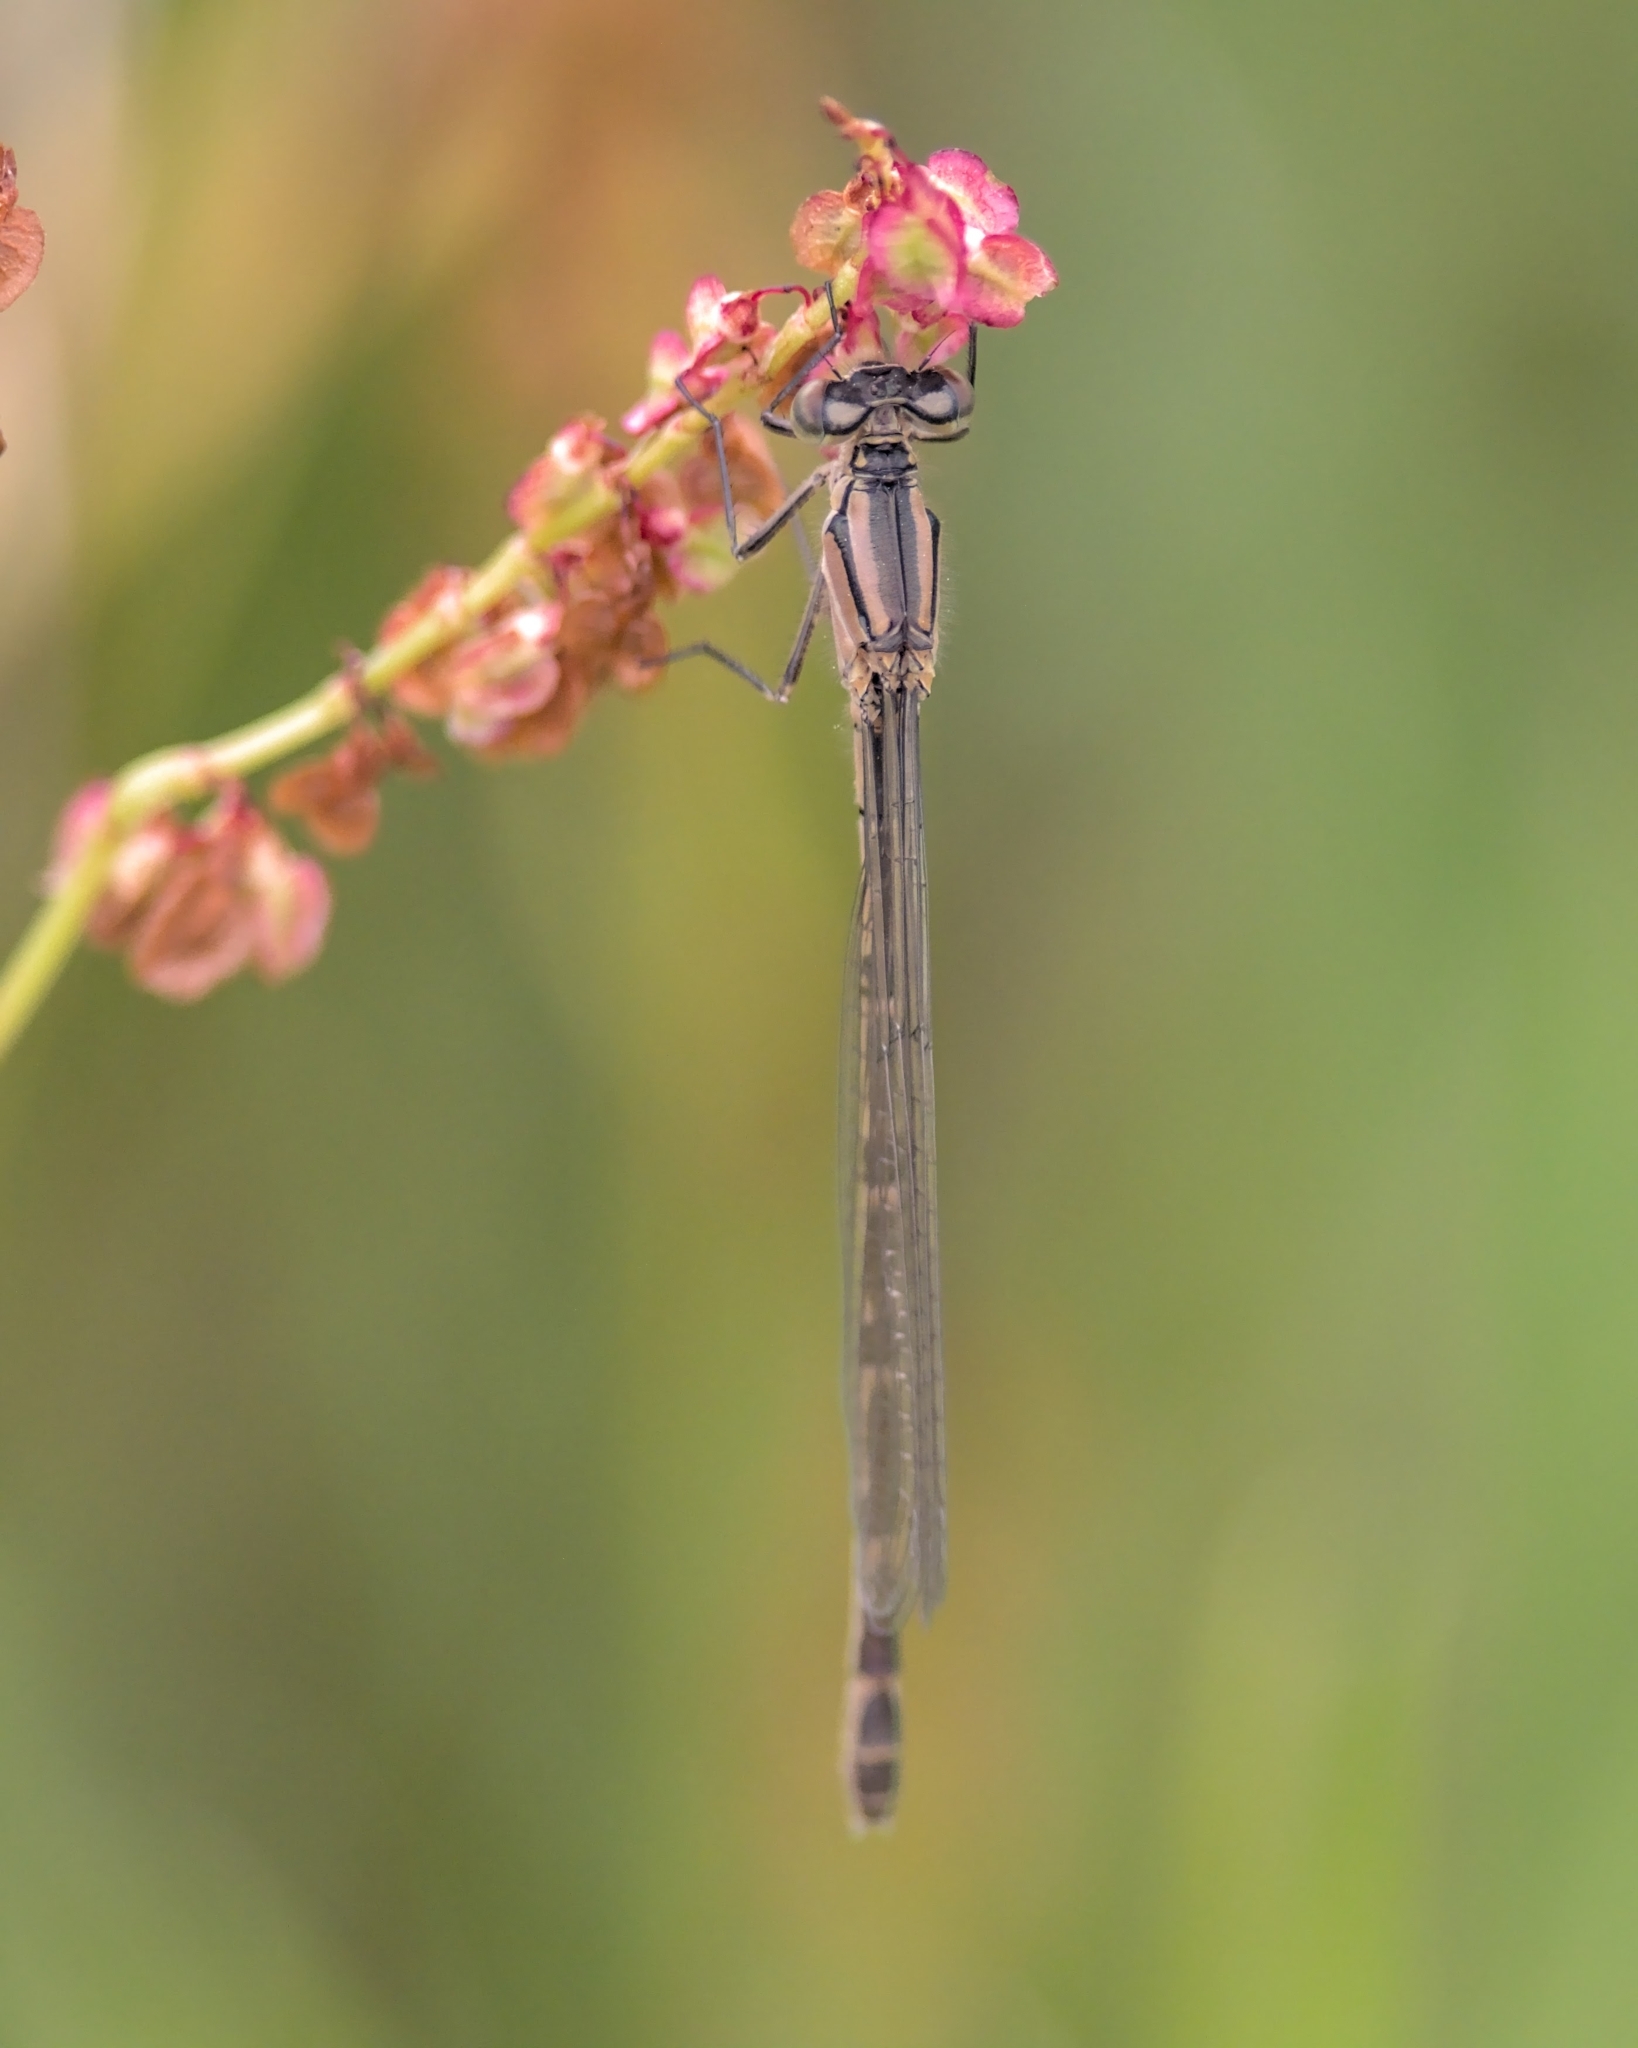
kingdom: Animalia
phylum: Arthropoda
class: Insecta
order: Odonata
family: Coenagrionidae
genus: Enallagma
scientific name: Enallagma cyathigerum
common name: Common blue damselfly
